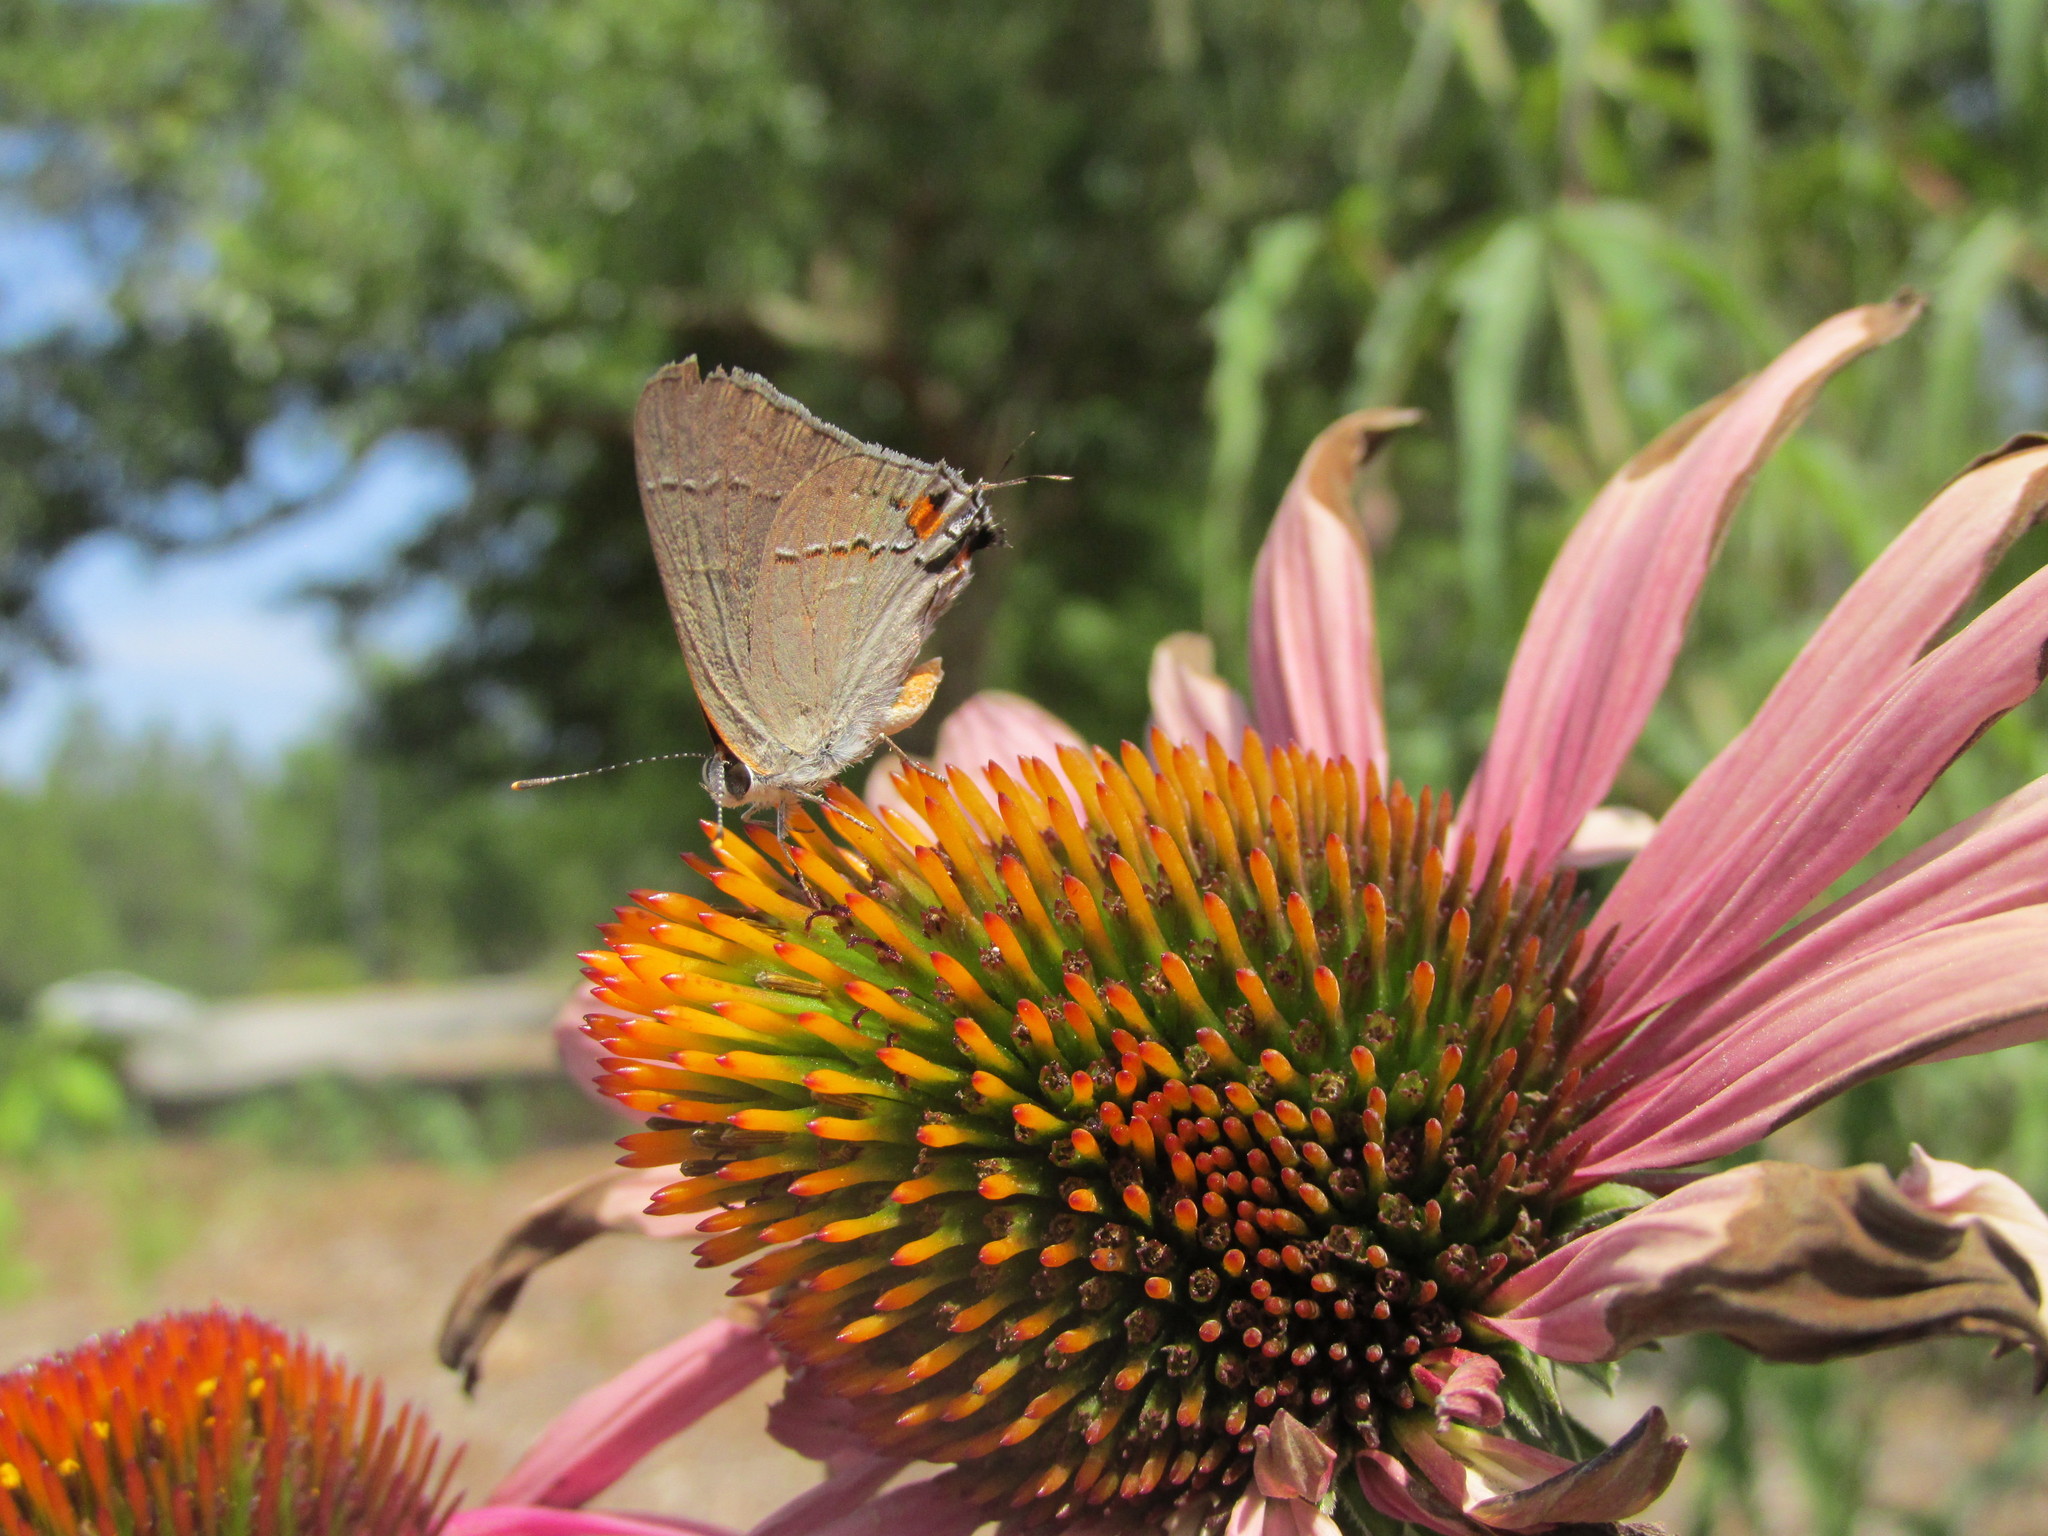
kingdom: Animalia
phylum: Arthropoda
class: Insecta
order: Lepidoptera
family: Lycaenidae
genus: Strymon
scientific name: Strymon melinus
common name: Gray hairstreak
